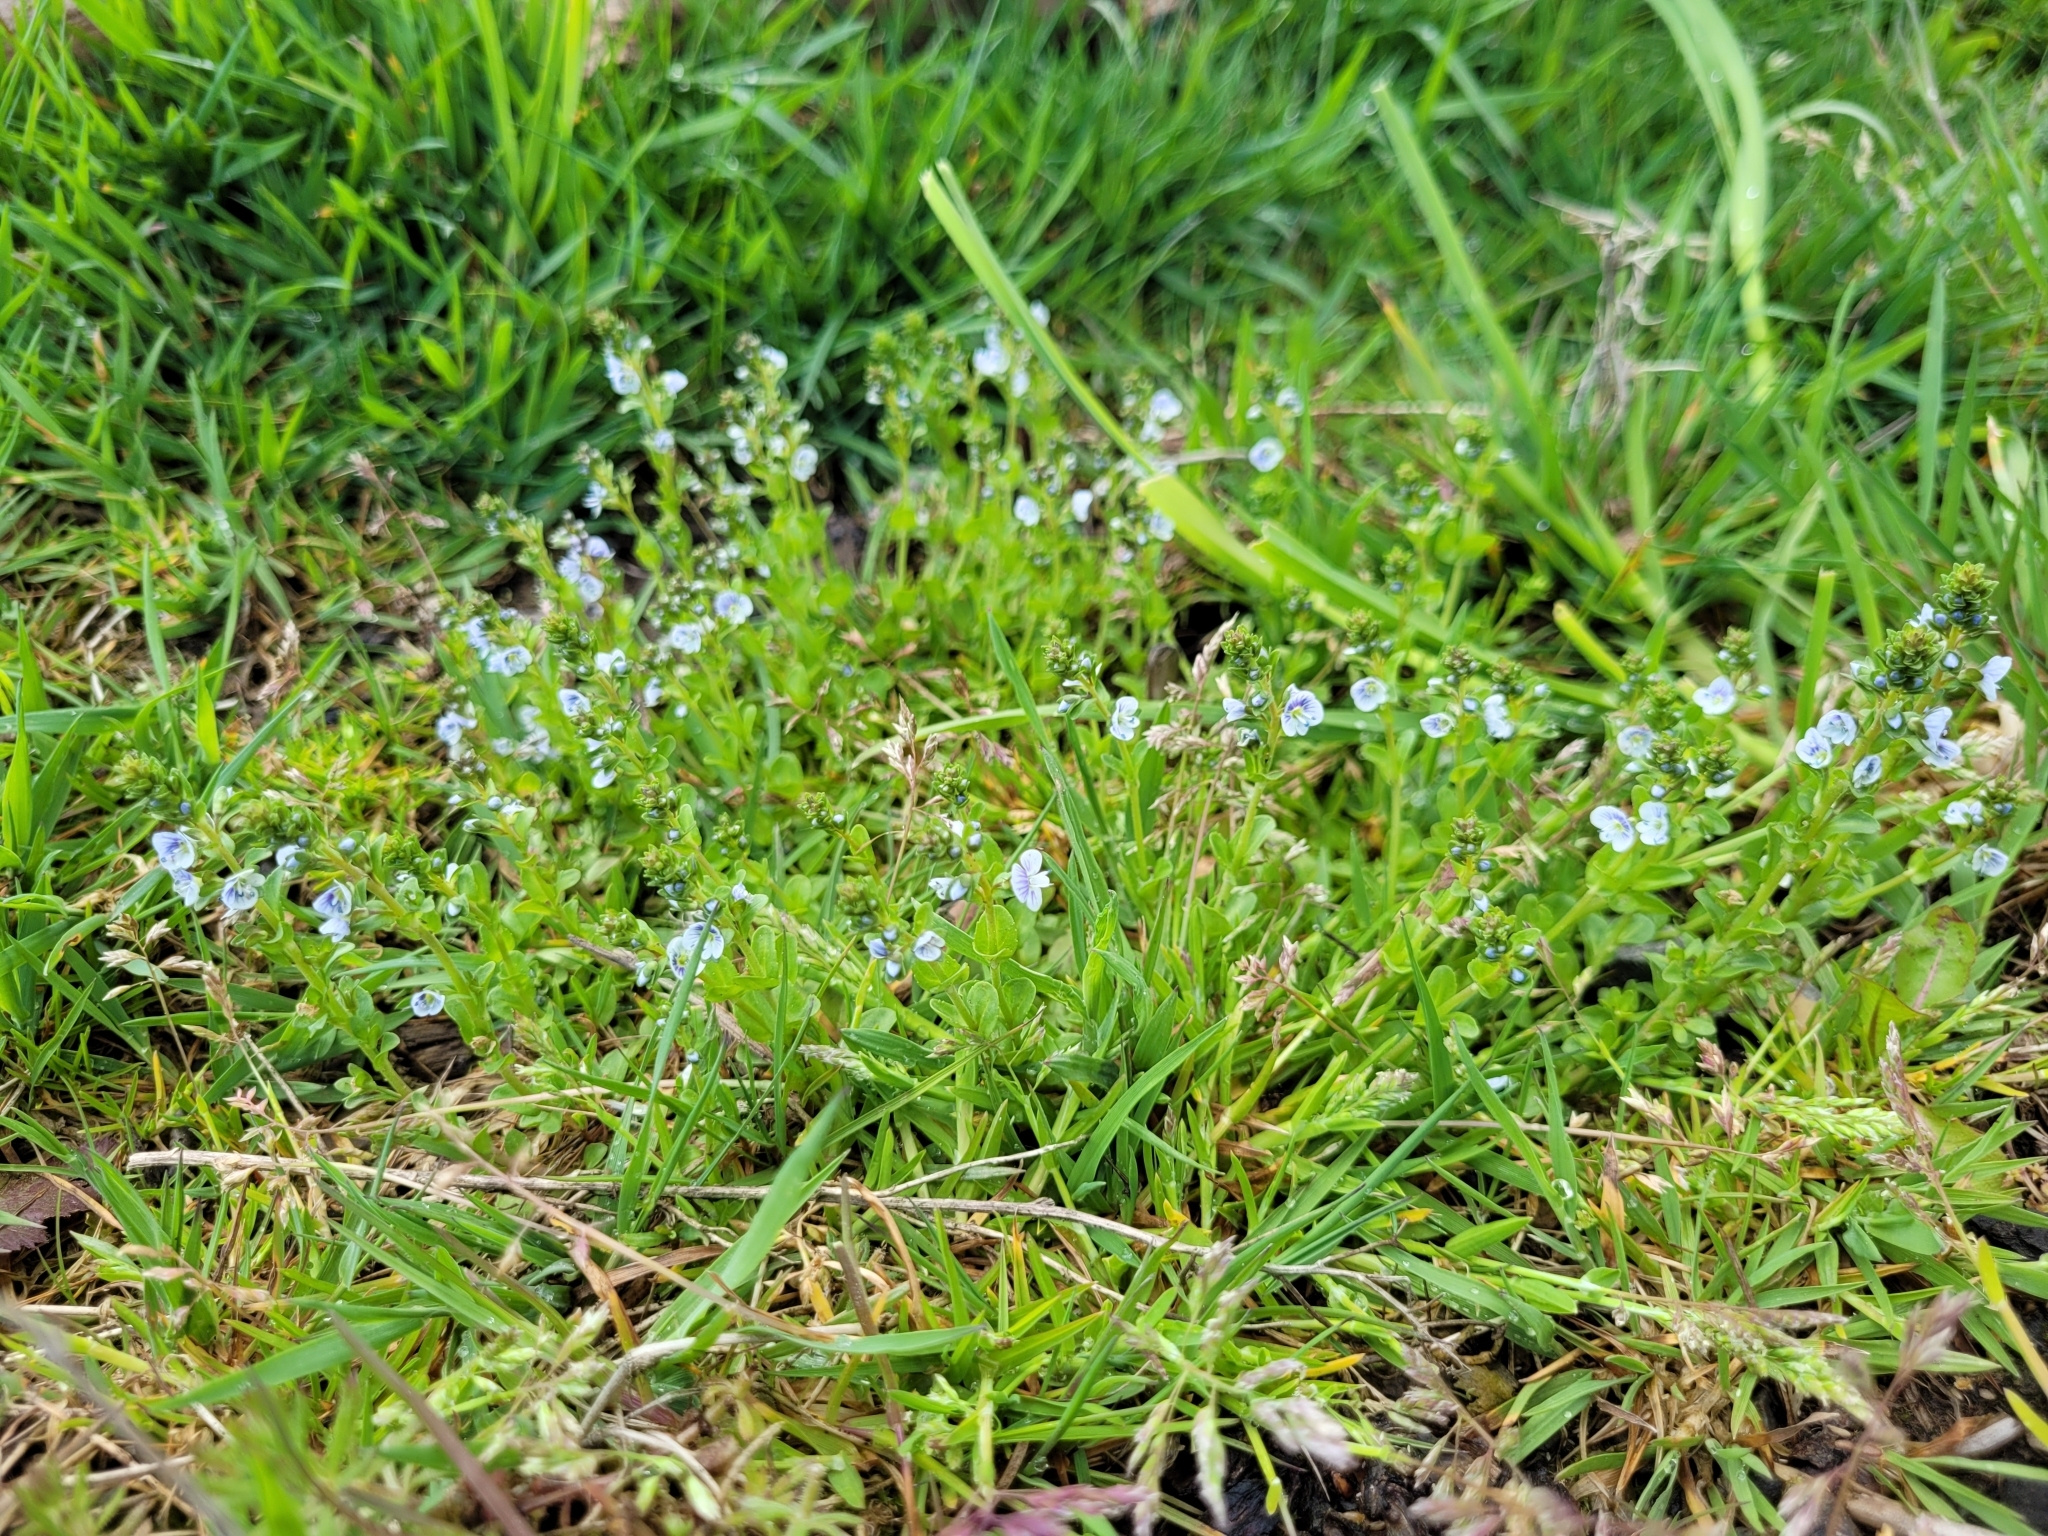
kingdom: Plantae
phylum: Tracheophyta
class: Magnoliopsida
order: Lamiales
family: Plantaginaceae
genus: Veronica
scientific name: Veronica serpyllifolia
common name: Thyme-leaved speedwell
